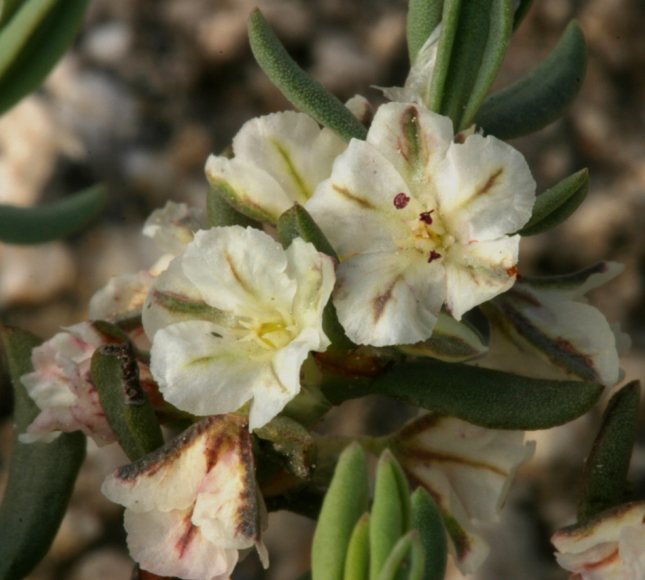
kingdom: Plantae
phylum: Tracheophyta
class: Magnoliopsida
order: Caryophyllales
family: Polygonaceae
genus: Polygonum
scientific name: Polygonum shastense
